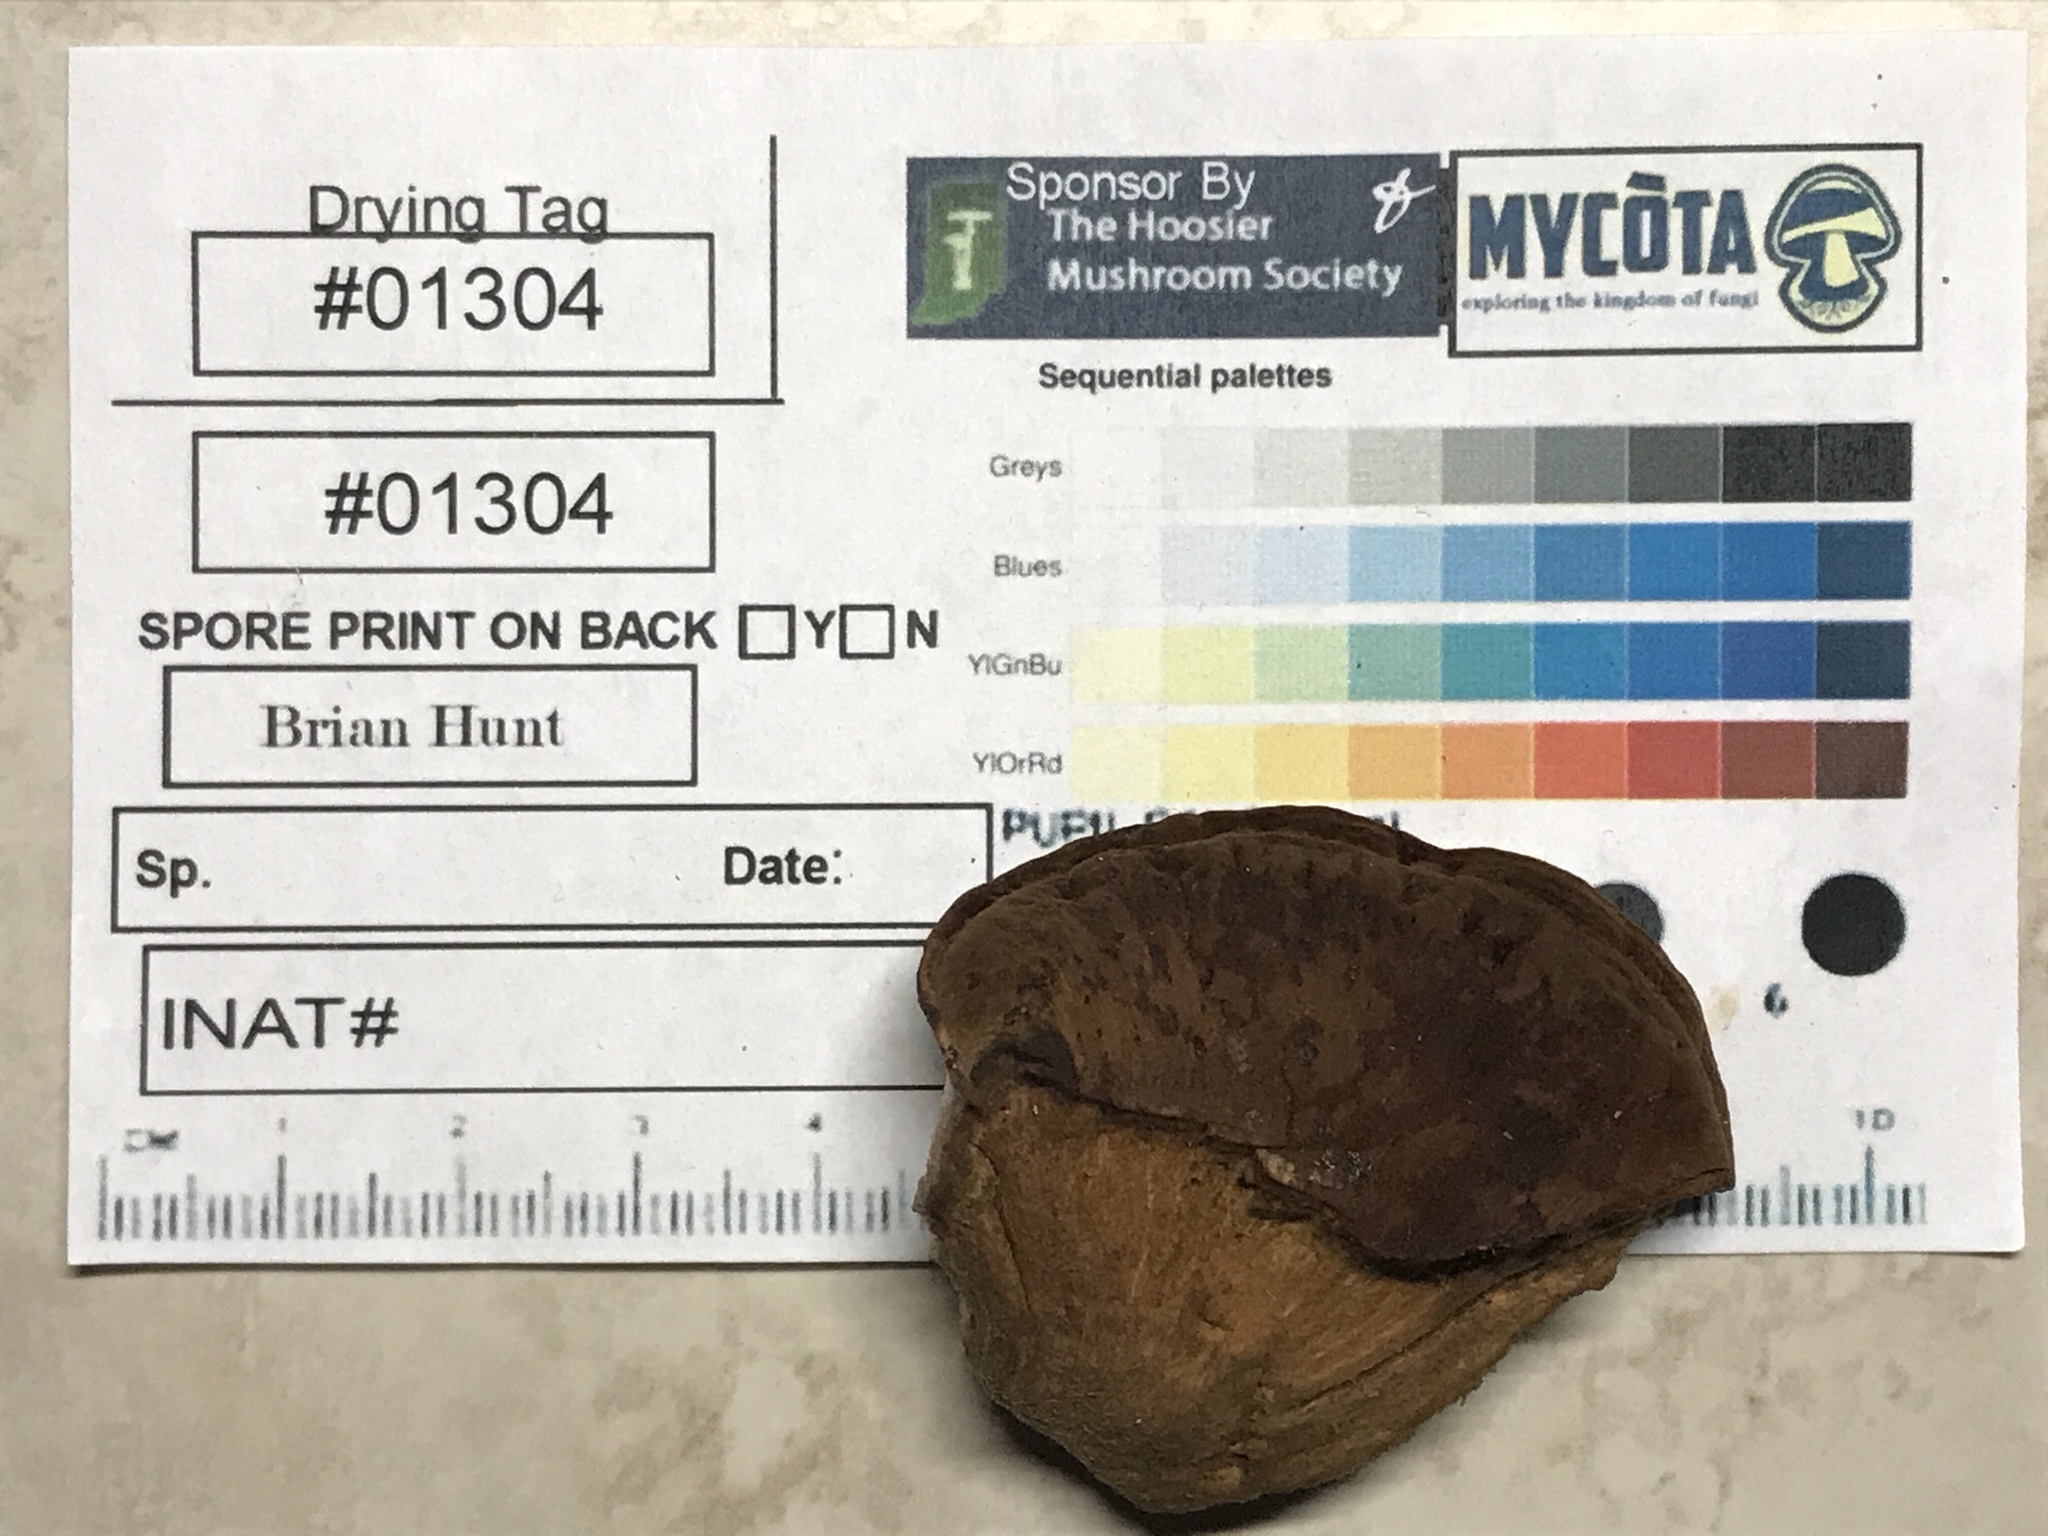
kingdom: Fungi
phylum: Basidiomycota
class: Agaricomycetes
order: Polyporales
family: Ischnodermataceae
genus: Ischnoderma
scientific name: Ischnoderma resinosum
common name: Resinous polypore
